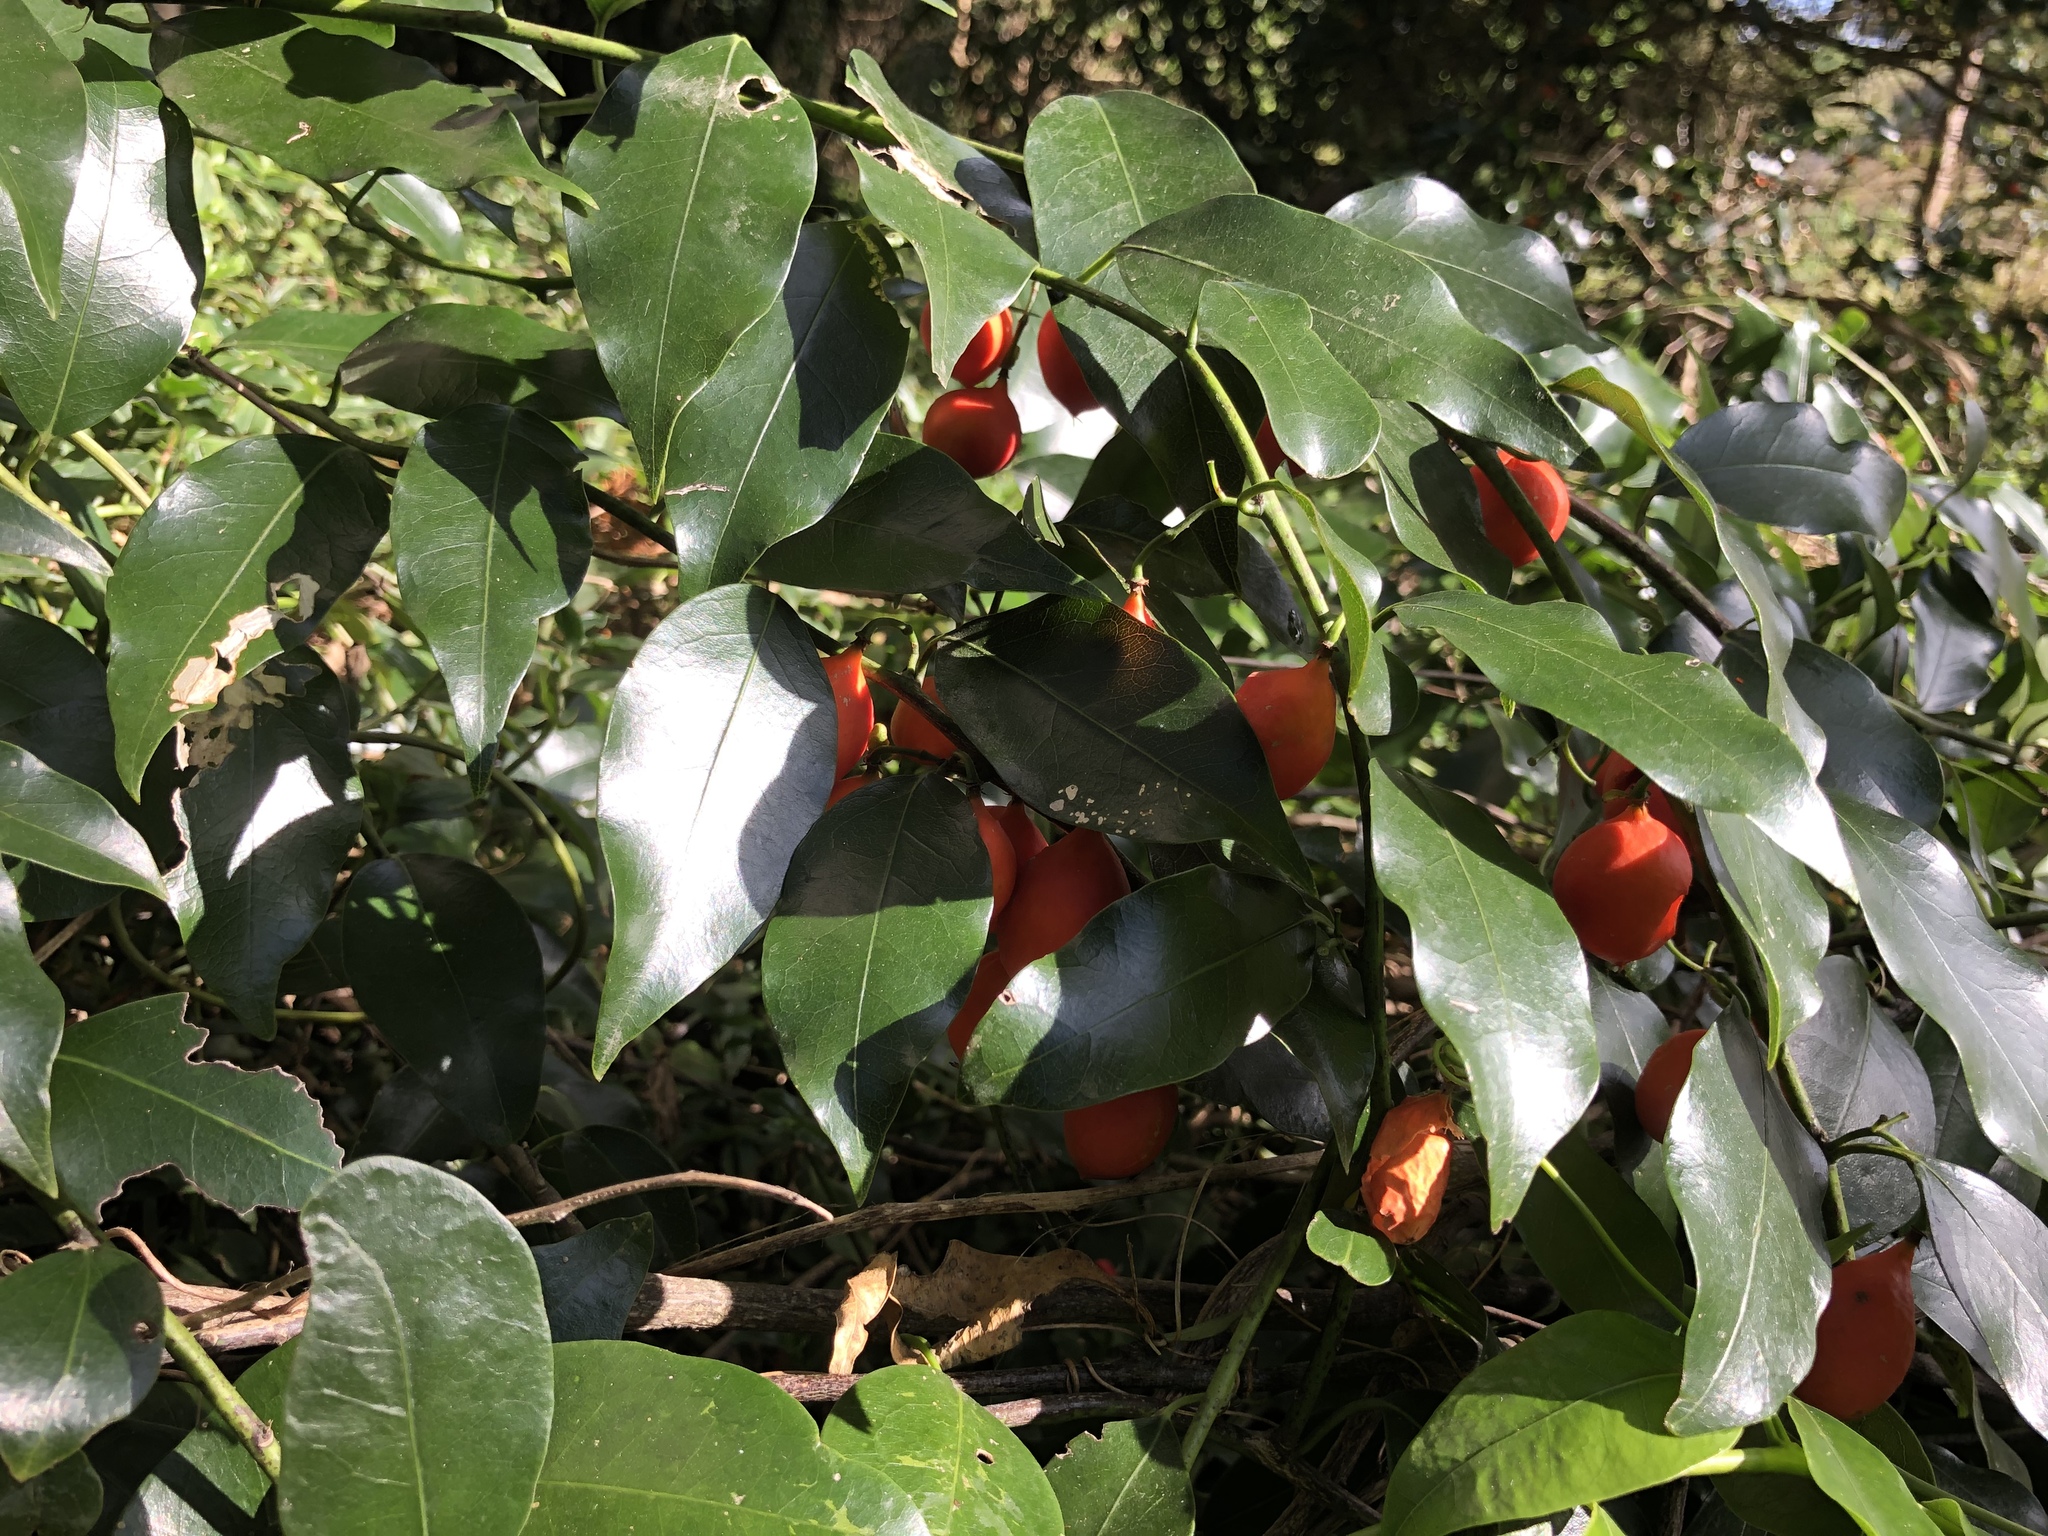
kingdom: Plantae
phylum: Tracheophyta
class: Magnoliopsida
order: Malpighiales
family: Passifloraceae
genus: Passiflora
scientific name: Passiflora tetrandra
